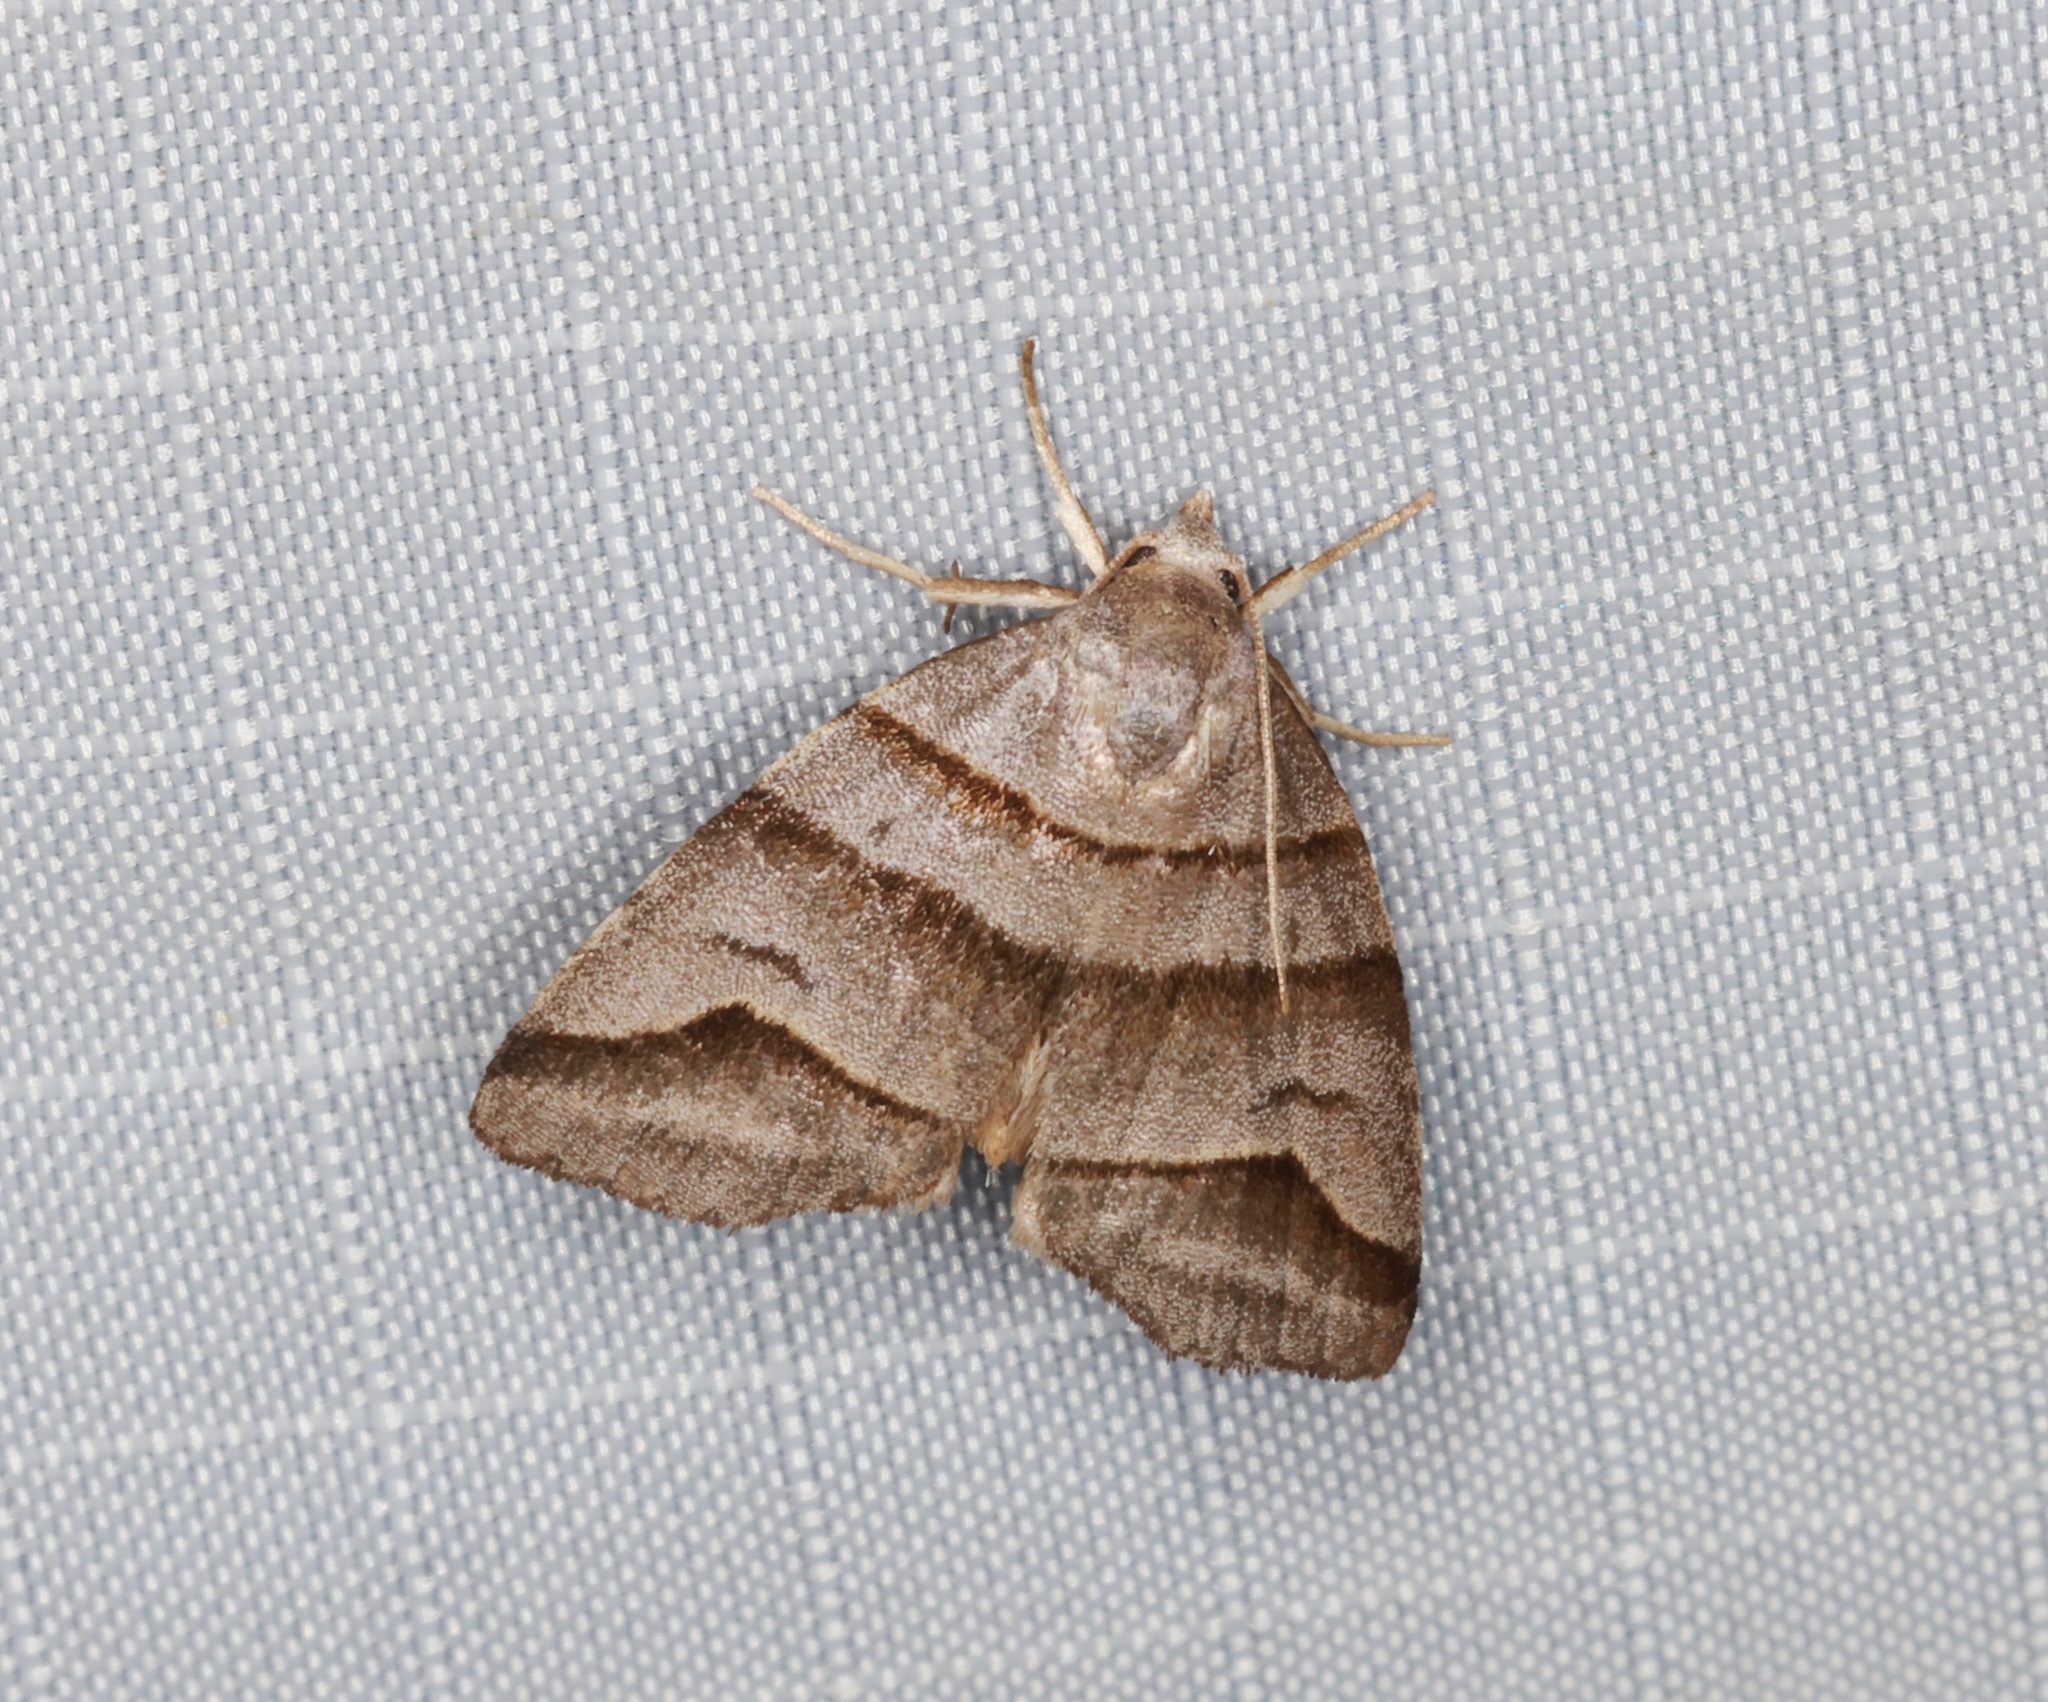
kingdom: Animalia
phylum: Arthropoda
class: Insecta
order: Lepidoptera
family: Noctuidae
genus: Flammona
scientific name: Flammona trilineata
